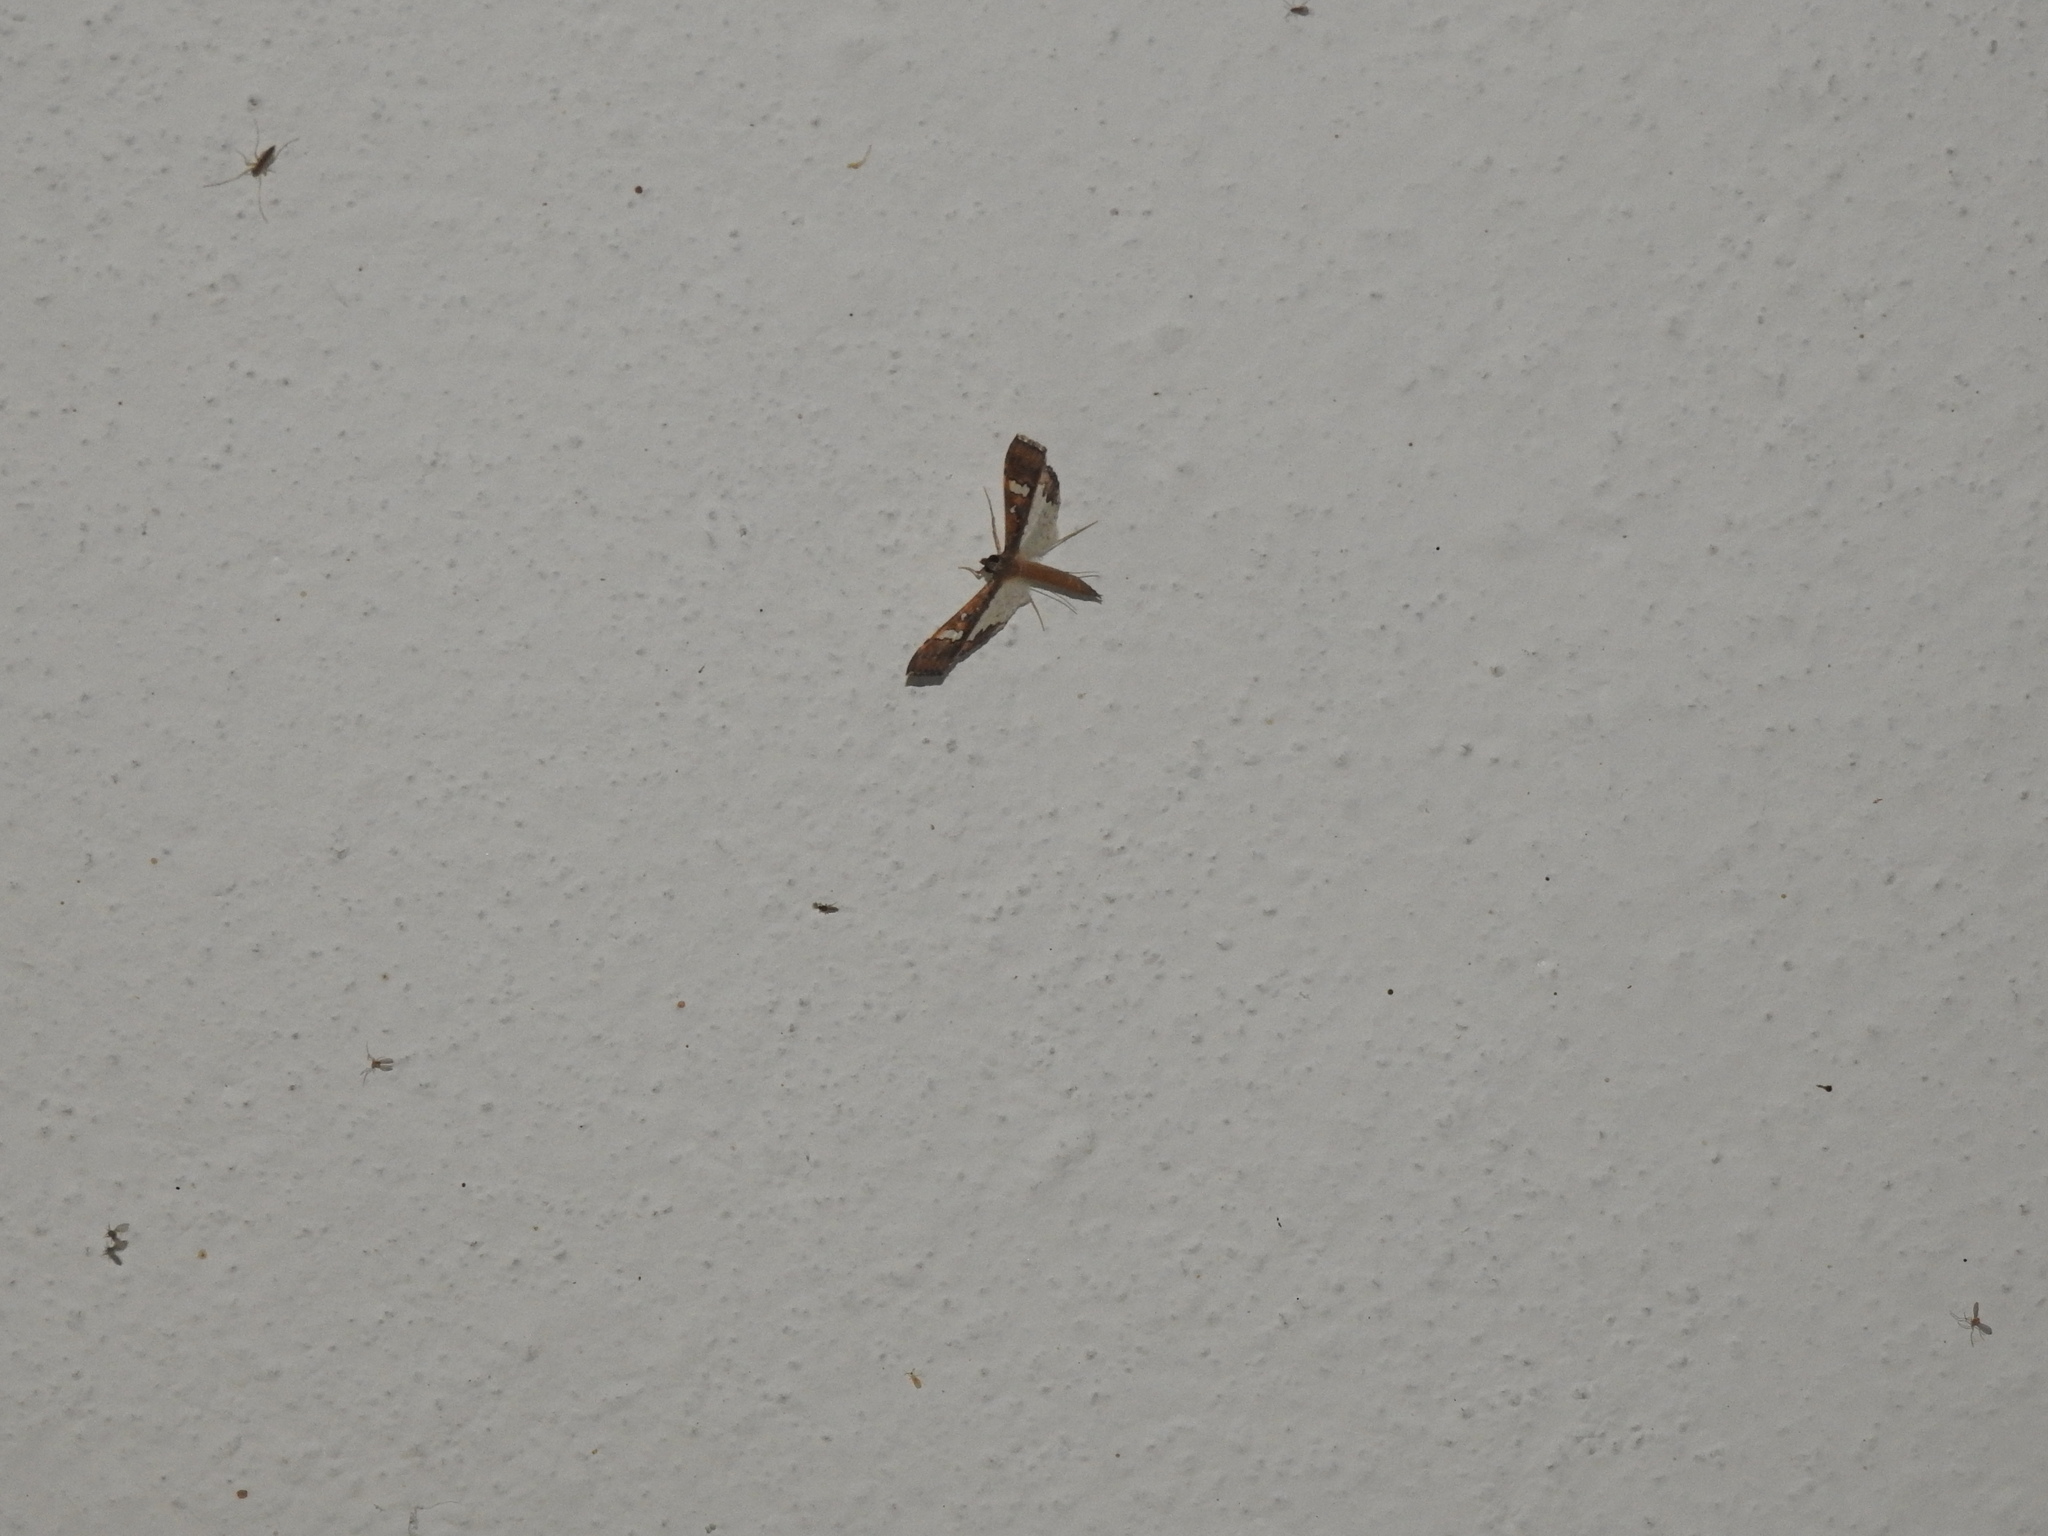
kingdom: Animalia
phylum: Arthropoda
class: Insecta
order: Lepidoptera
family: Crambidae
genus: Maruca
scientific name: Maruca vitrata
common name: Maruca pod borer
